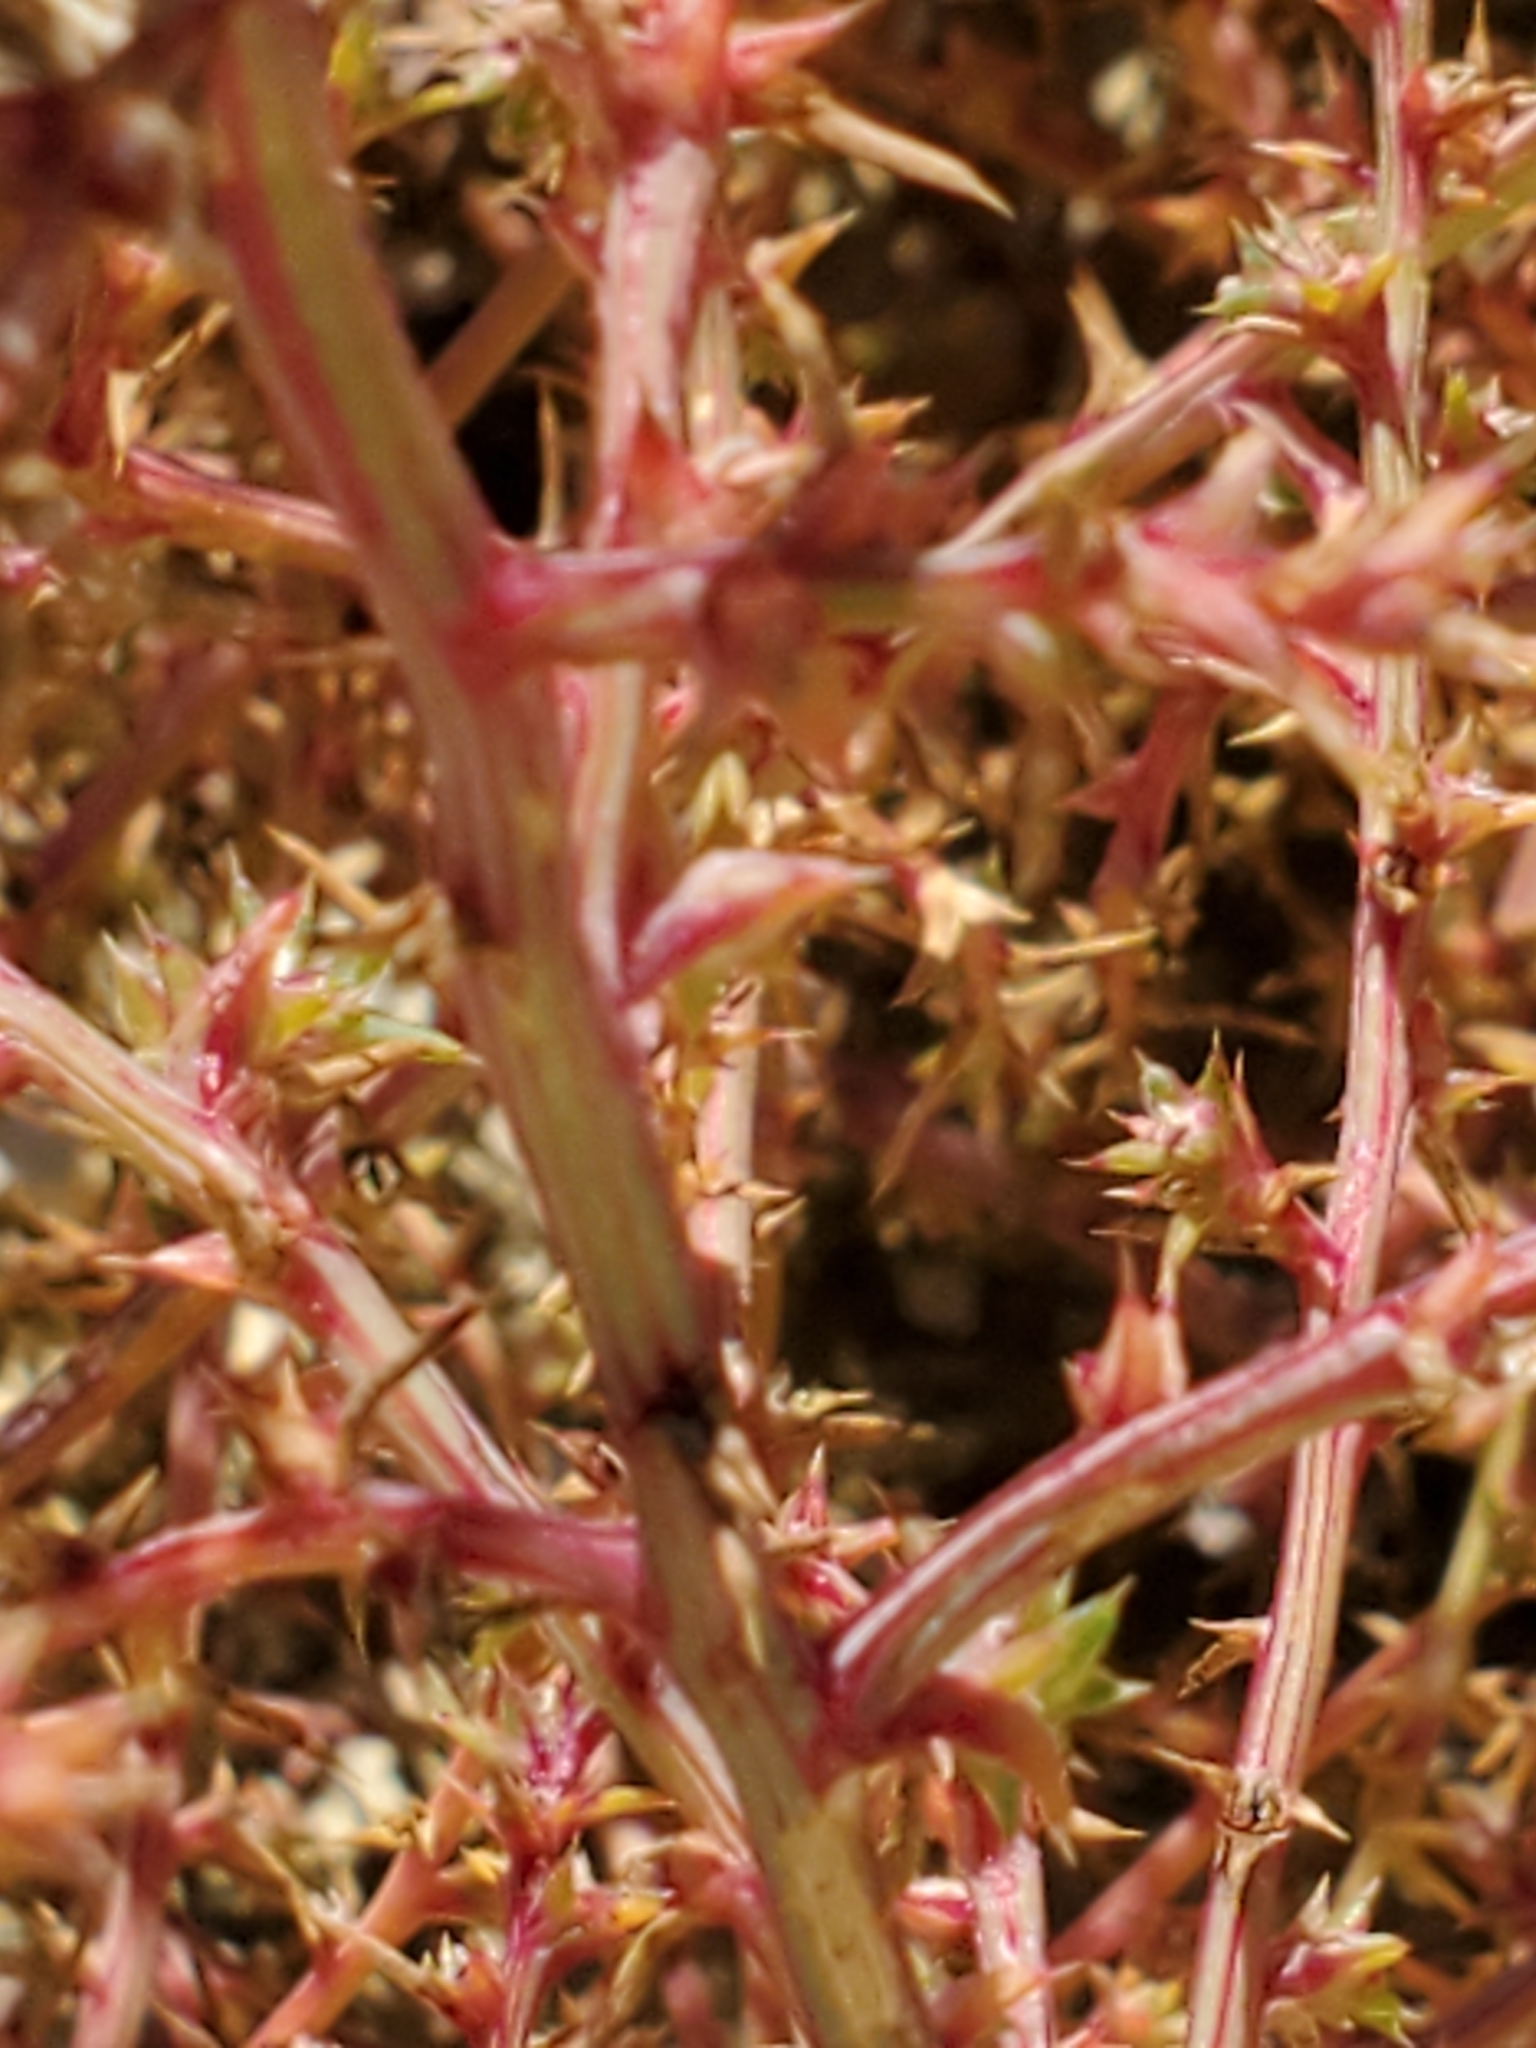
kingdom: Plantae
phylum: Tracheophyta
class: Magnoliopsida
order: Caryophyllales
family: Amaranthaceae
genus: Salsola
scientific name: Salsola tragus
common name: Prickly russian thistle
